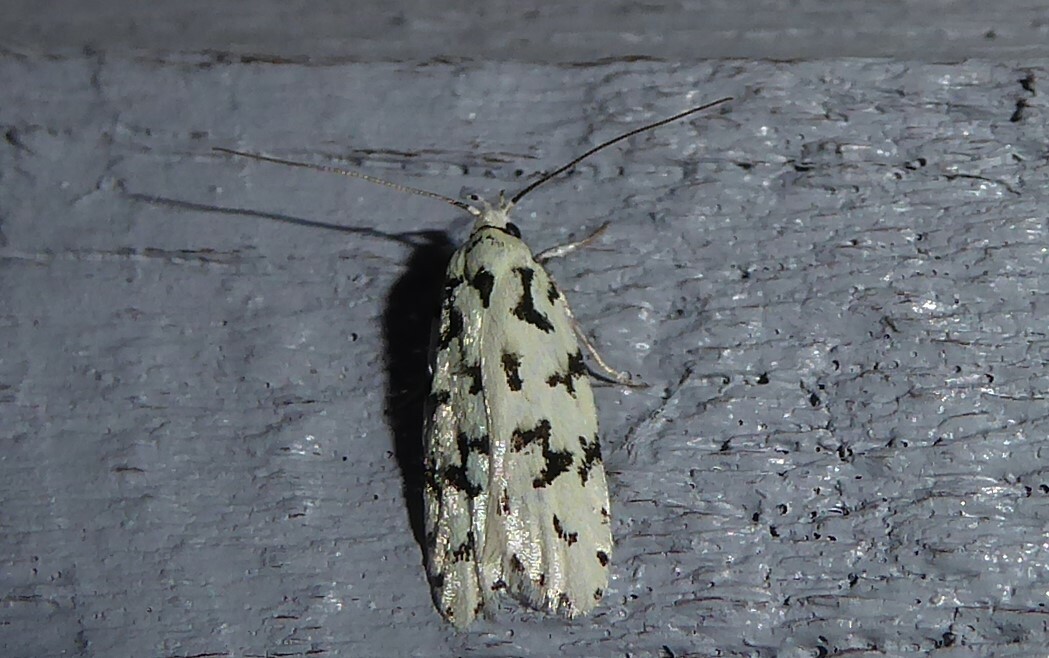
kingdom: Animalia
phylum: Arthropoda
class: Insecta
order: Lepidoptera
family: Oecophoridae
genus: Izatha
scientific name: Izatha huttoni
